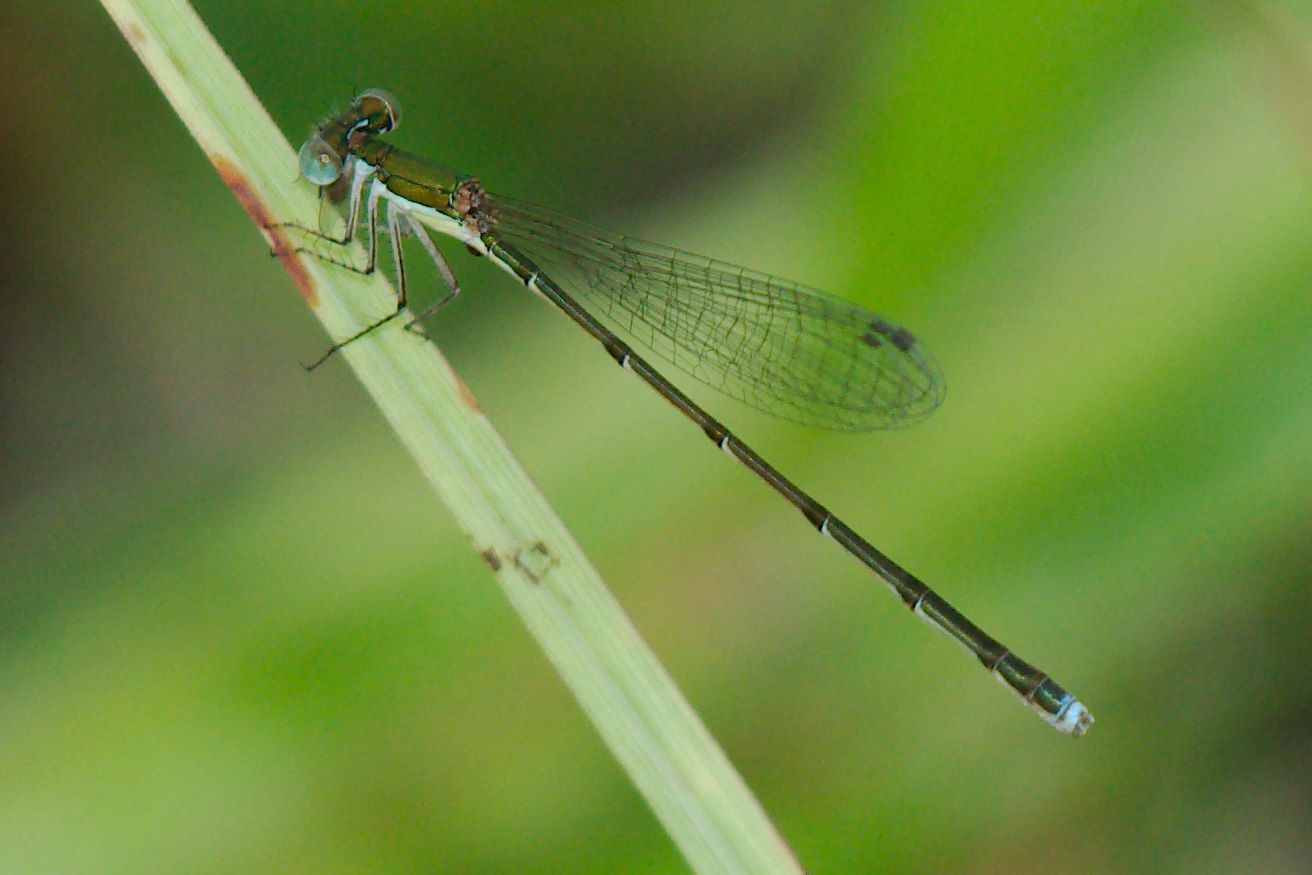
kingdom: Animalia
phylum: Arthropoda
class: Insecta
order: Odonata
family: Coenagrionidae
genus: Nehalennia
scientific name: Nehalennia integricollis
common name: Southern sprite
